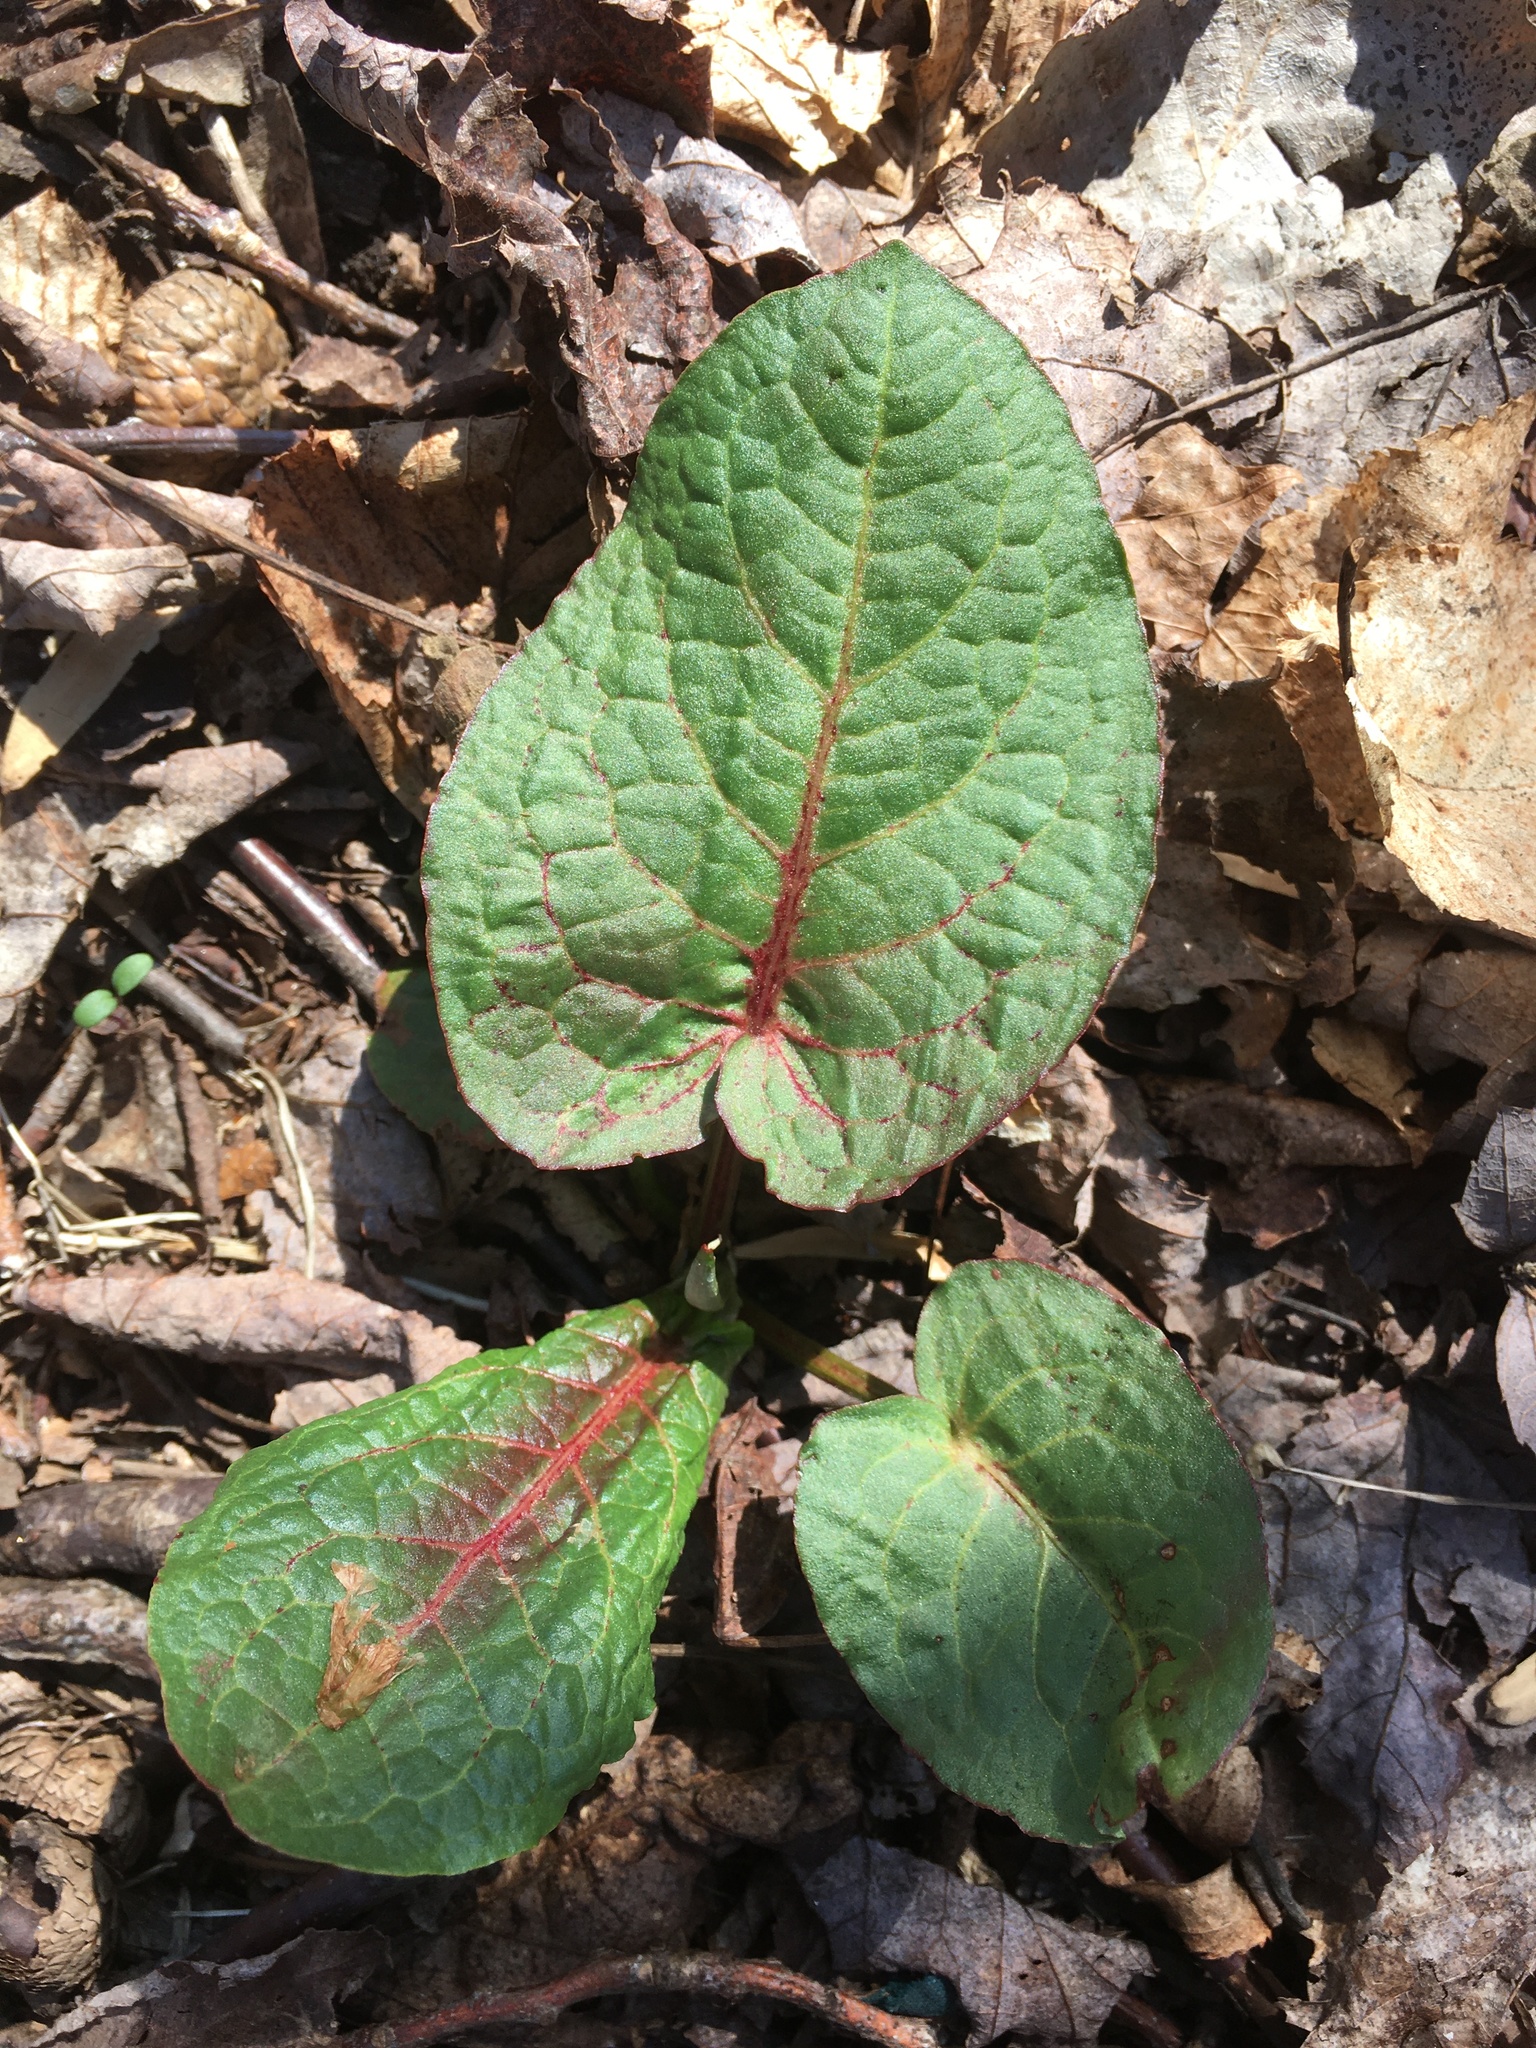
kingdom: Plantae
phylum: Tracheophyta
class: Magnoliopsida
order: Caryophyllales
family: Polygonaceae
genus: Rumex
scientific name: Rumex obtusifolius
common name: Bitter dock
